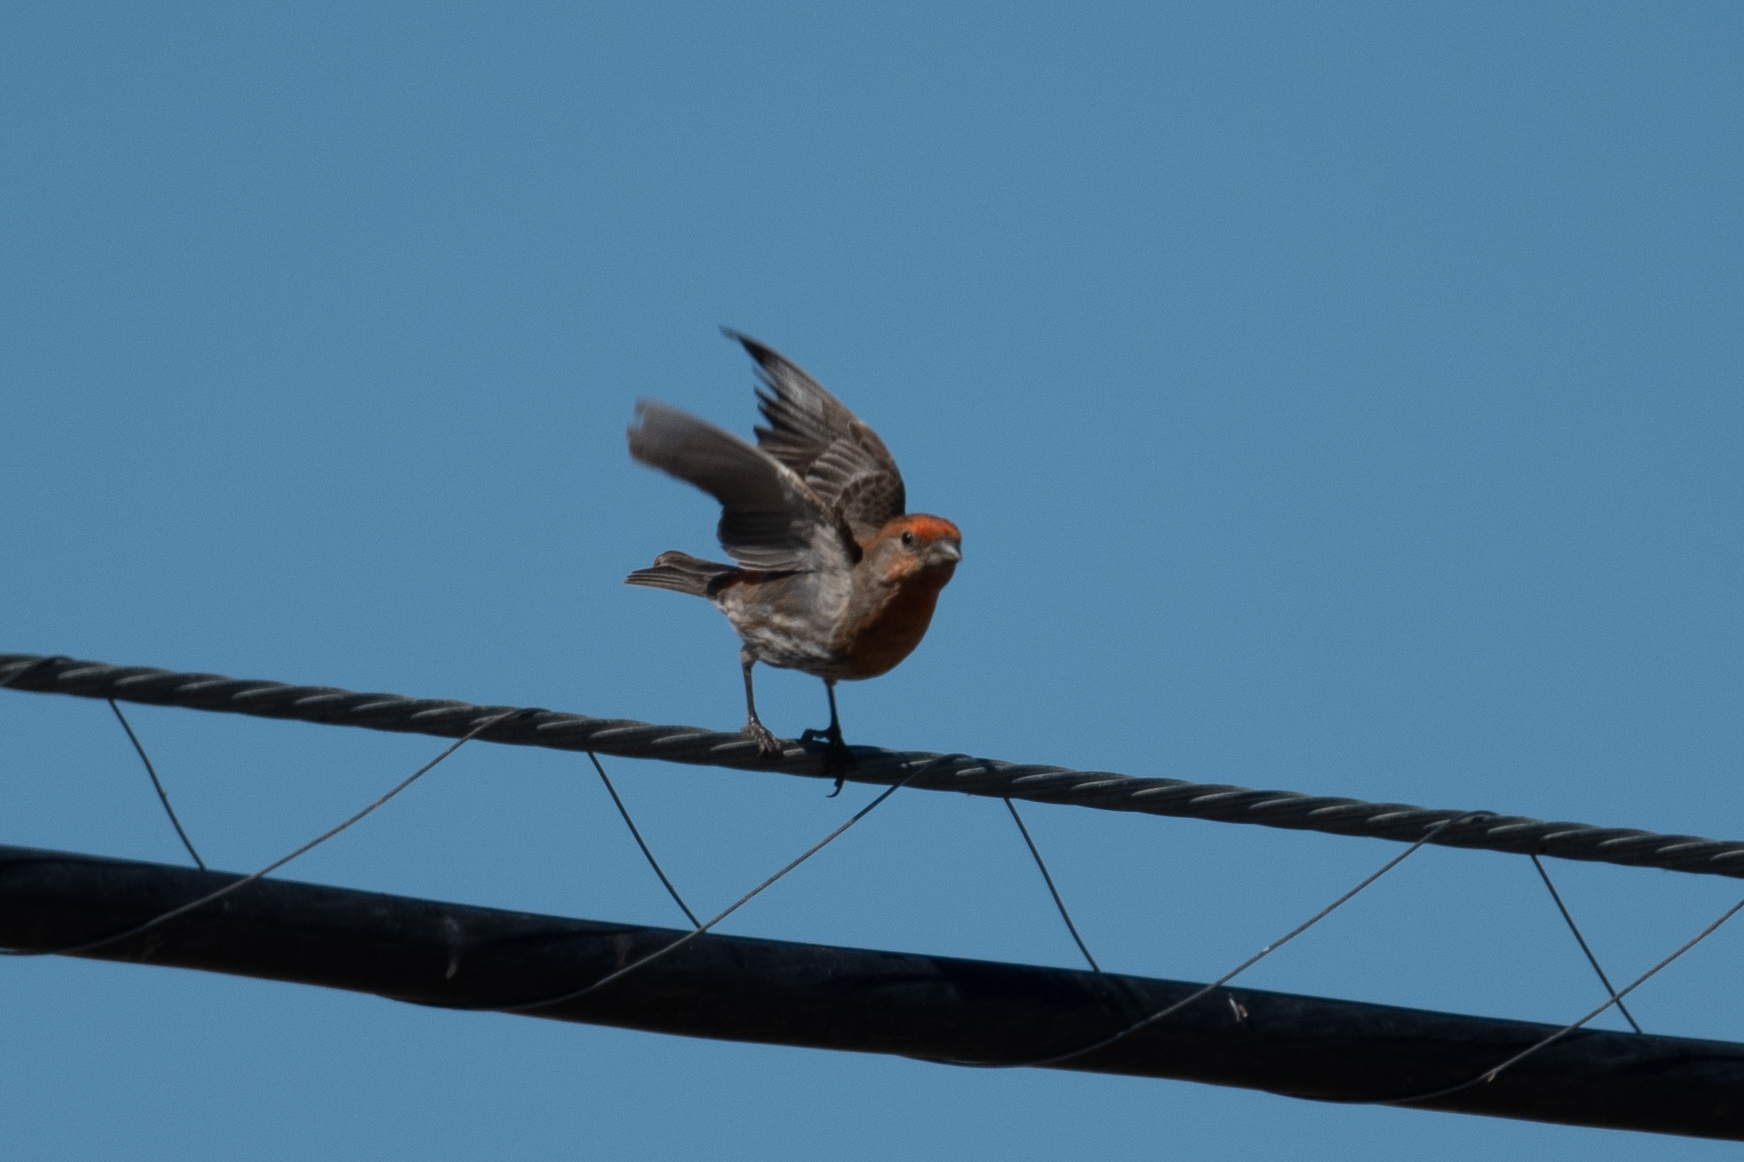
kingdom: Animalia
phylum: Chordata
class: Aves
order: Passeriformes
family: Fringillidae
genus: Haemorhous
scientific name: Haemorhous mexicanus
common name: House finch
